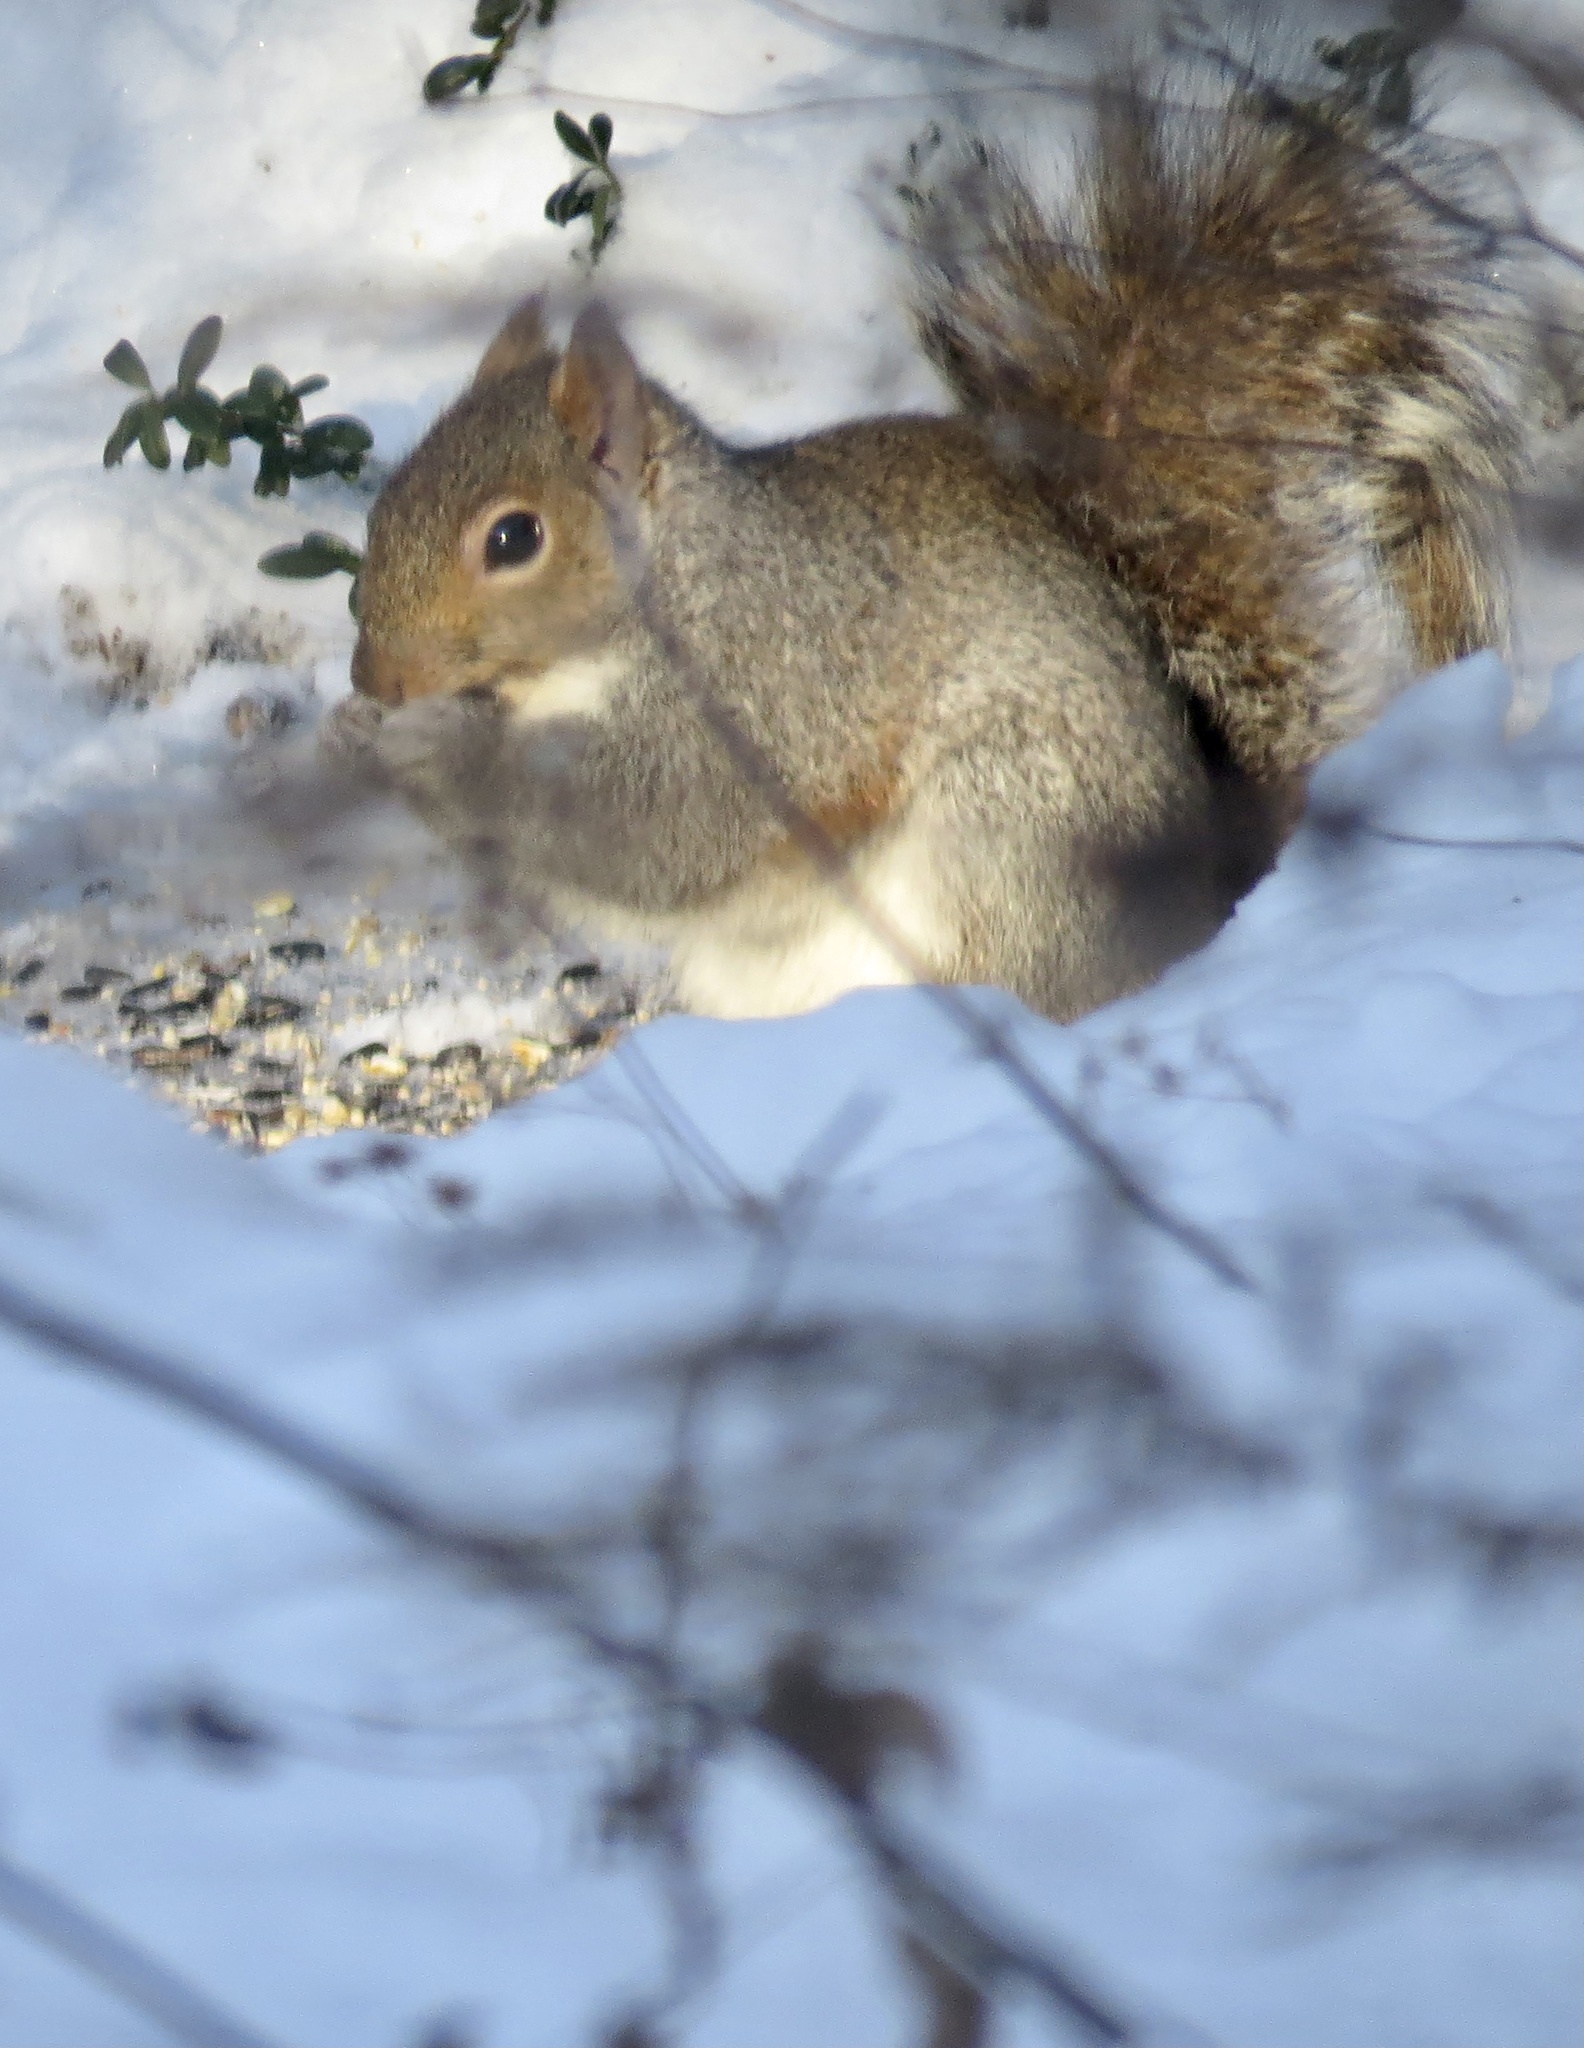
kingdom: Animalia
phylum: Chordata
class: Mammalia
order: Rodentia
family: Sciuridae
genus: Sciurus
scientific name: Sciurus carolinensis
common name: Eastern gray squirrel
